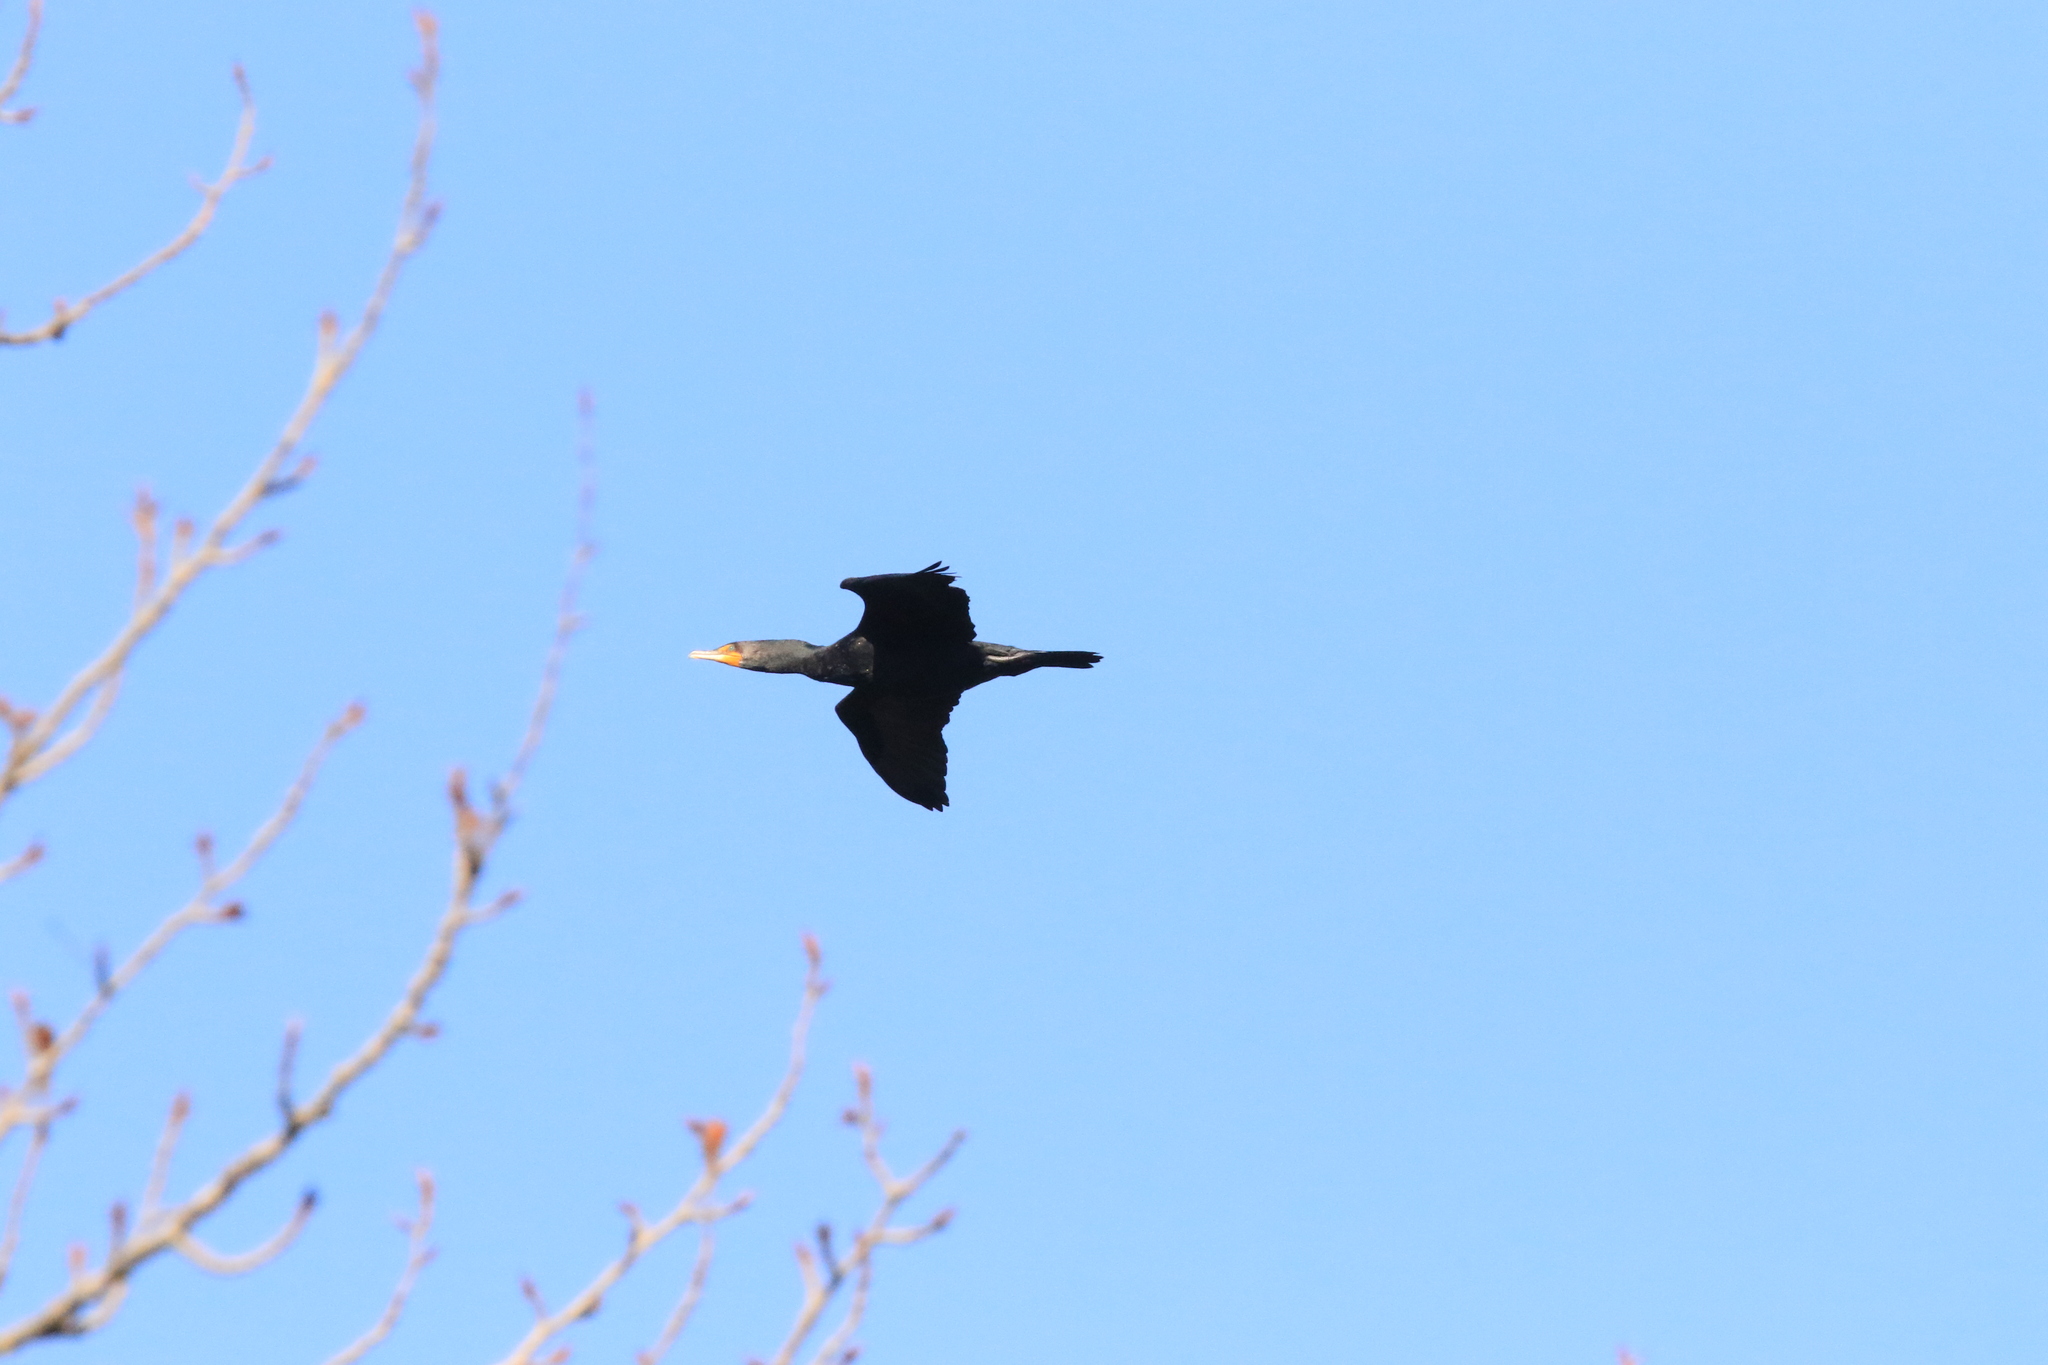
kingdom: Animalia
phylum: Chordata
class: Aves
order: Suliformes
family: Phalacrocoracidae
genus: Phalacrocorax
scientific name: Phalacrocorax auritus
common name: Double-crested cormorant
